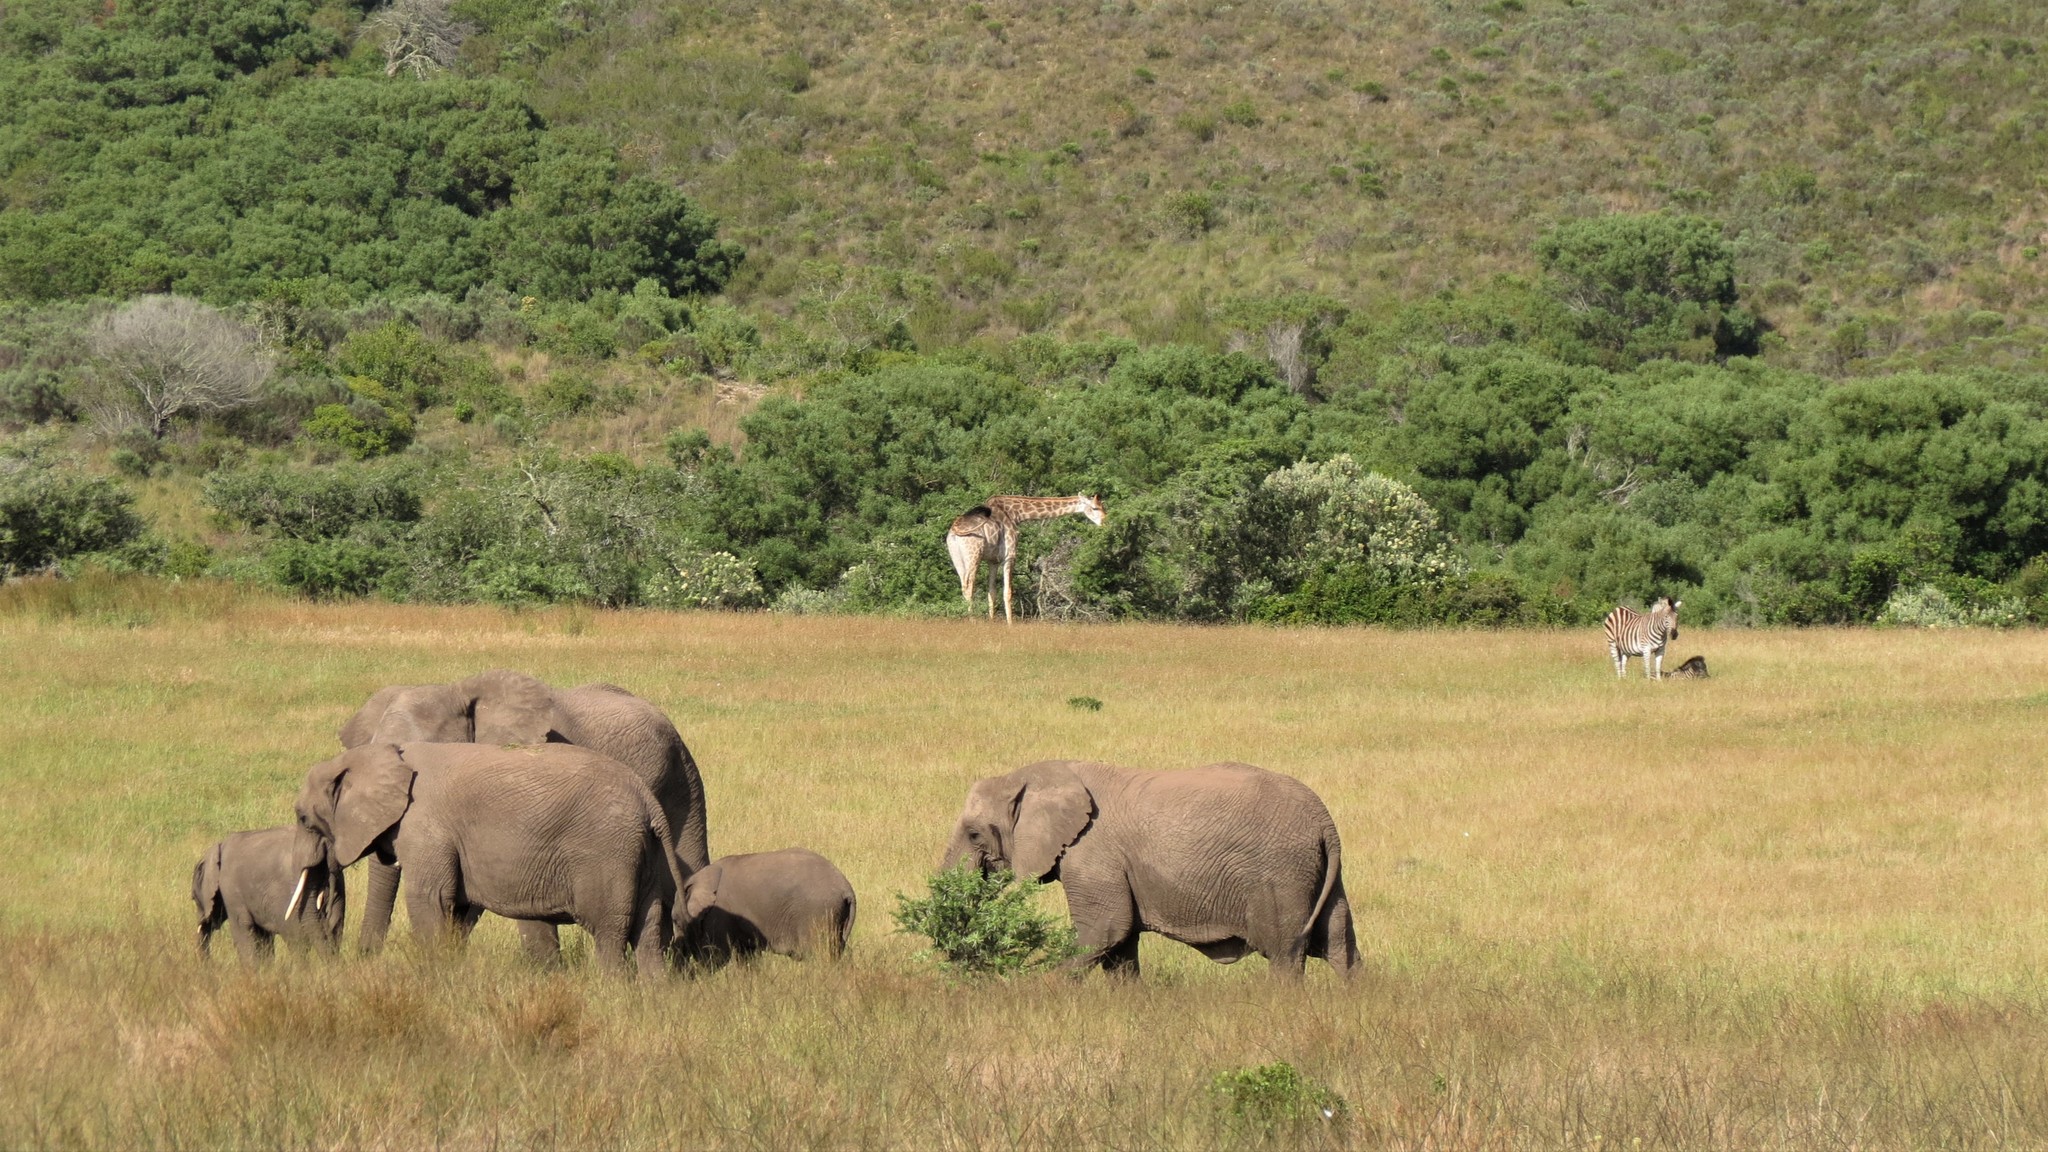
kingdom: Animalia
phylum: Chordata
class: Mammalia
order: Artiodactyla
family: Giraffidae
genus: Giraffa
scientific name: Giraffa giraffa
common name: Southern giraffe
